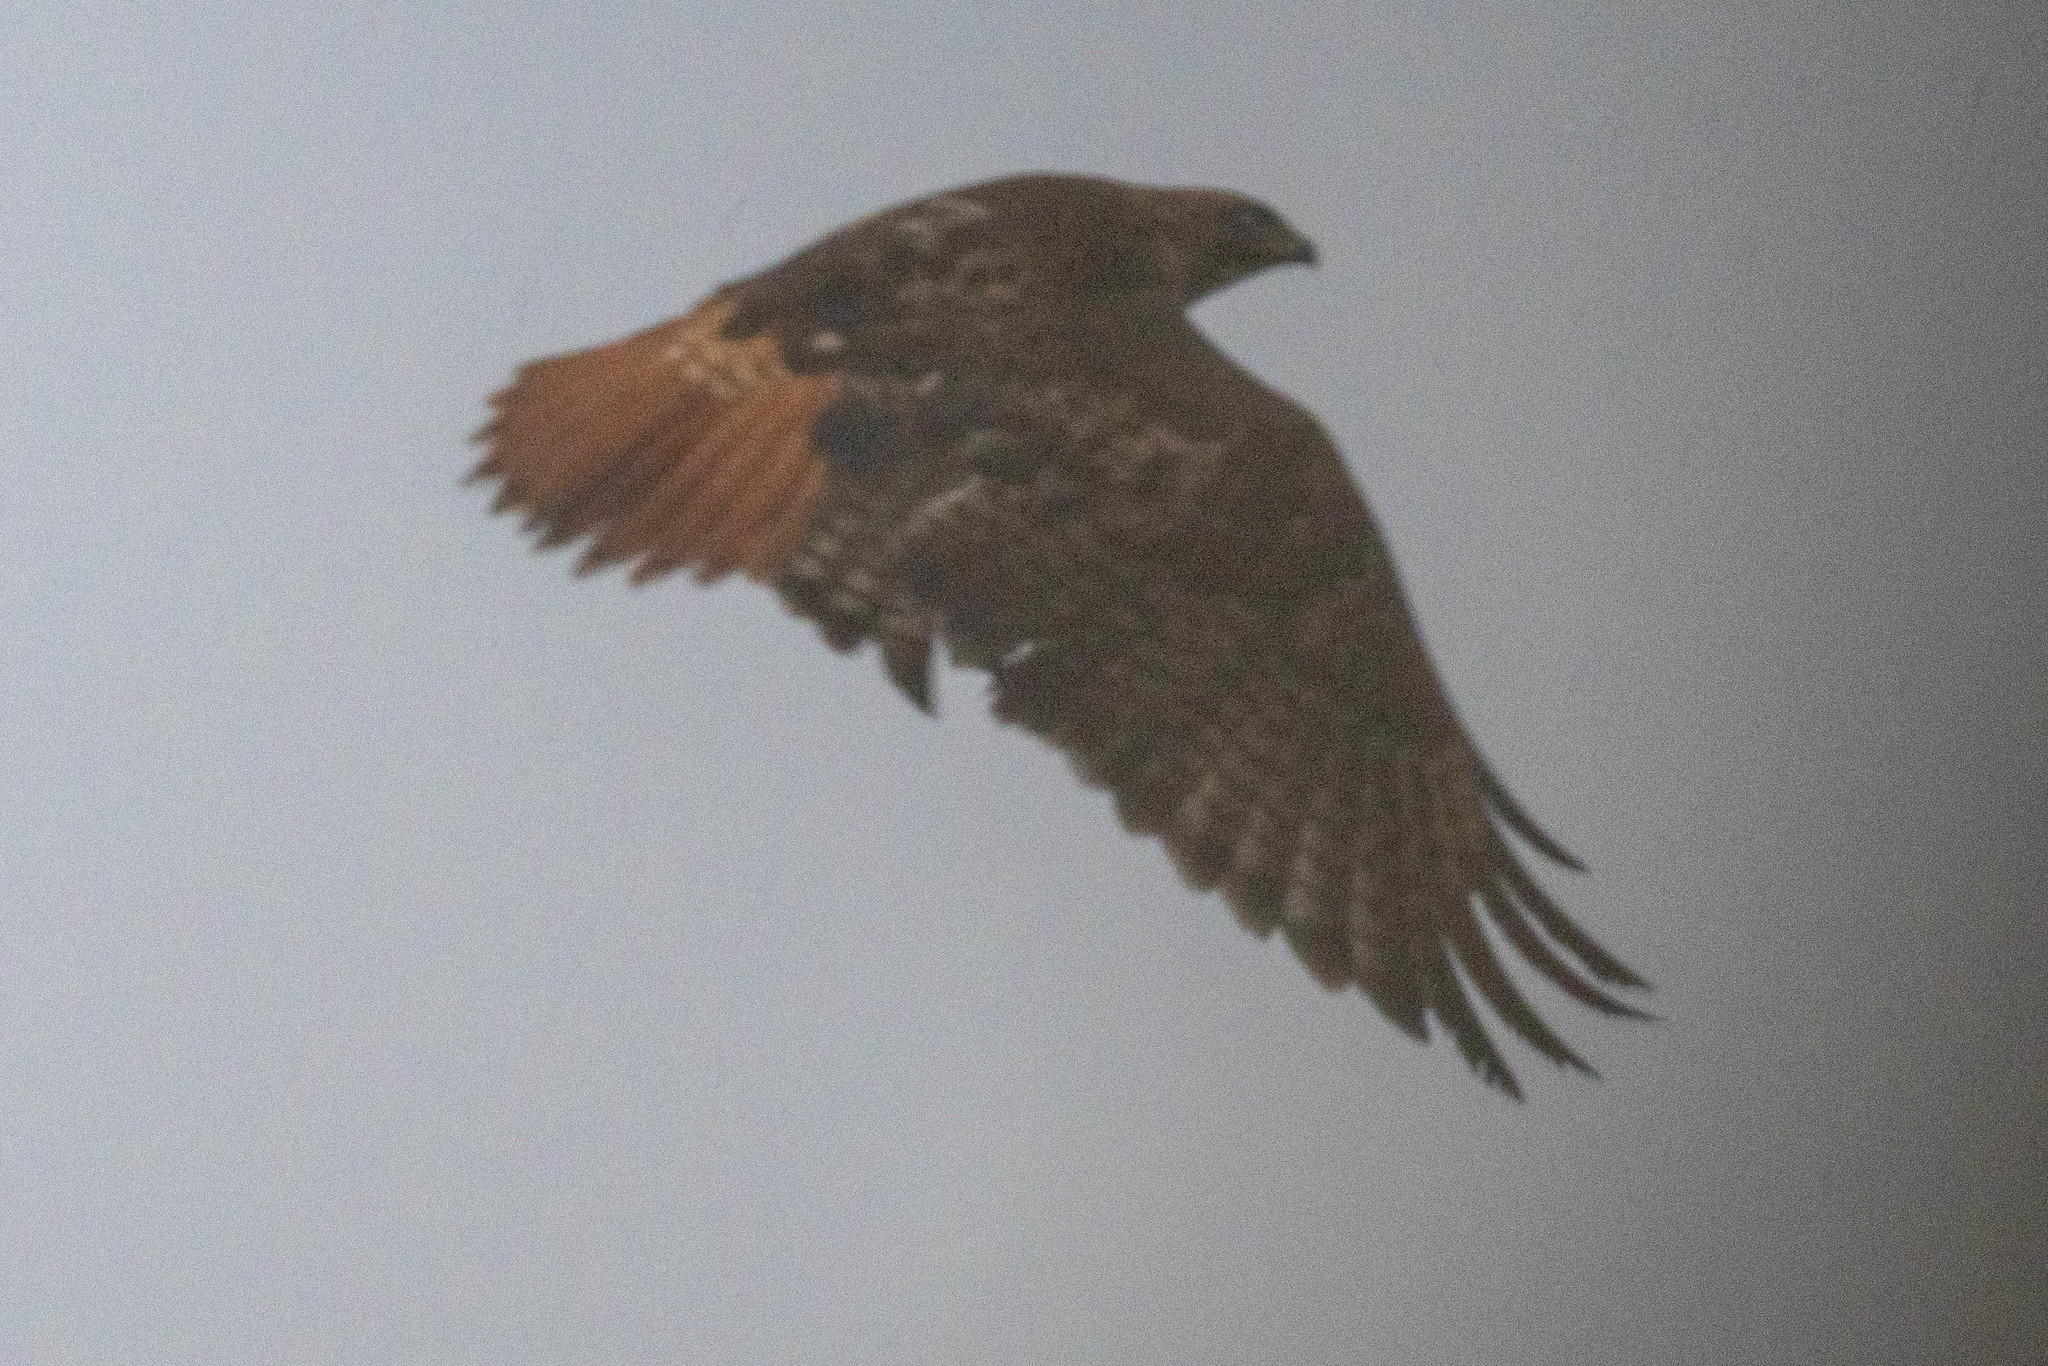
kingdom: Animalia
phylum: Chordata
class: Aves
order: Accipitriformes
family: Accipitridae
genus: Buteo
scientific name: Buteo jamaicensis
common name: Red-tailed hawk
